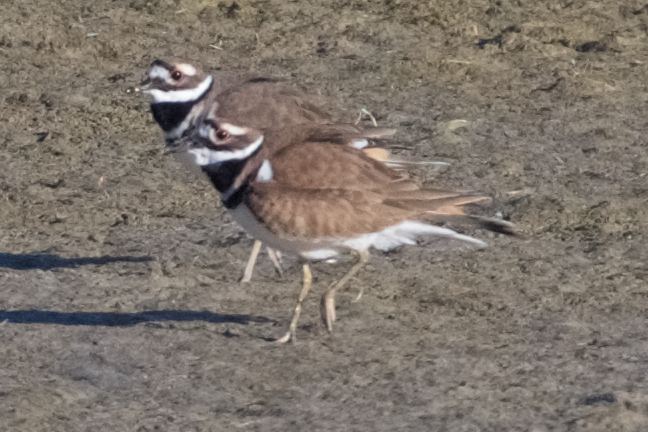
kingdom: Animalia
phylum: Chordata
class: Aves
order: Charadriiformes
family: Charadriidae
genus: Charadrius
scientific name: Charadrius vociferus
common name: Killdeer
